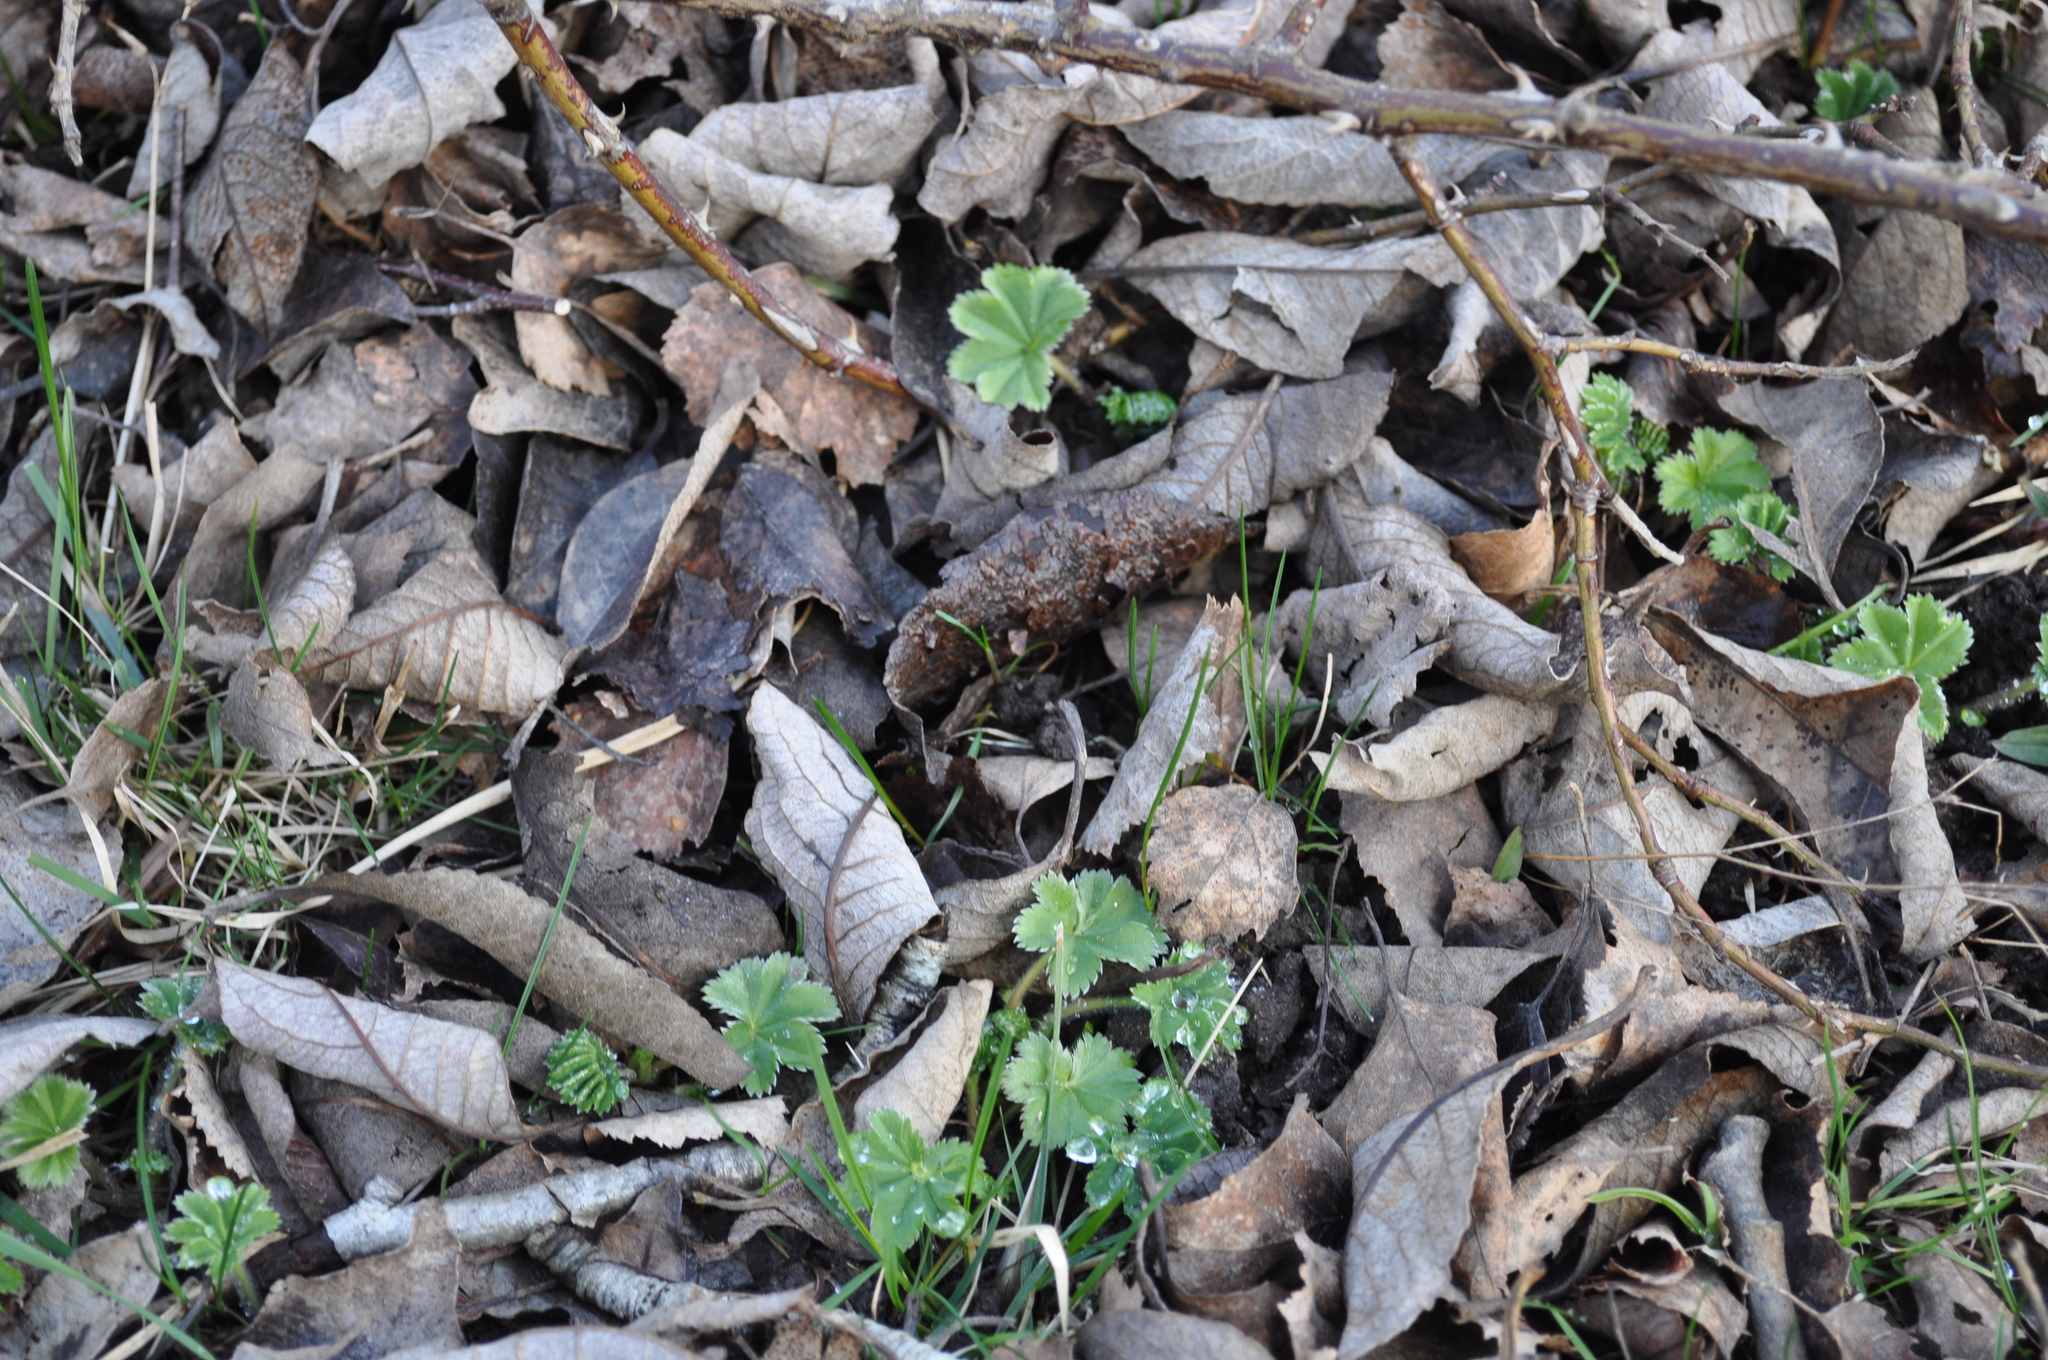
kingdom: Plantae
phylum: Tracheophyta
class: Magnoliopsida
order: Rosales
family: Rosaceae
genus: Alchemilla
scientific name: Alchemilla vulgaris
